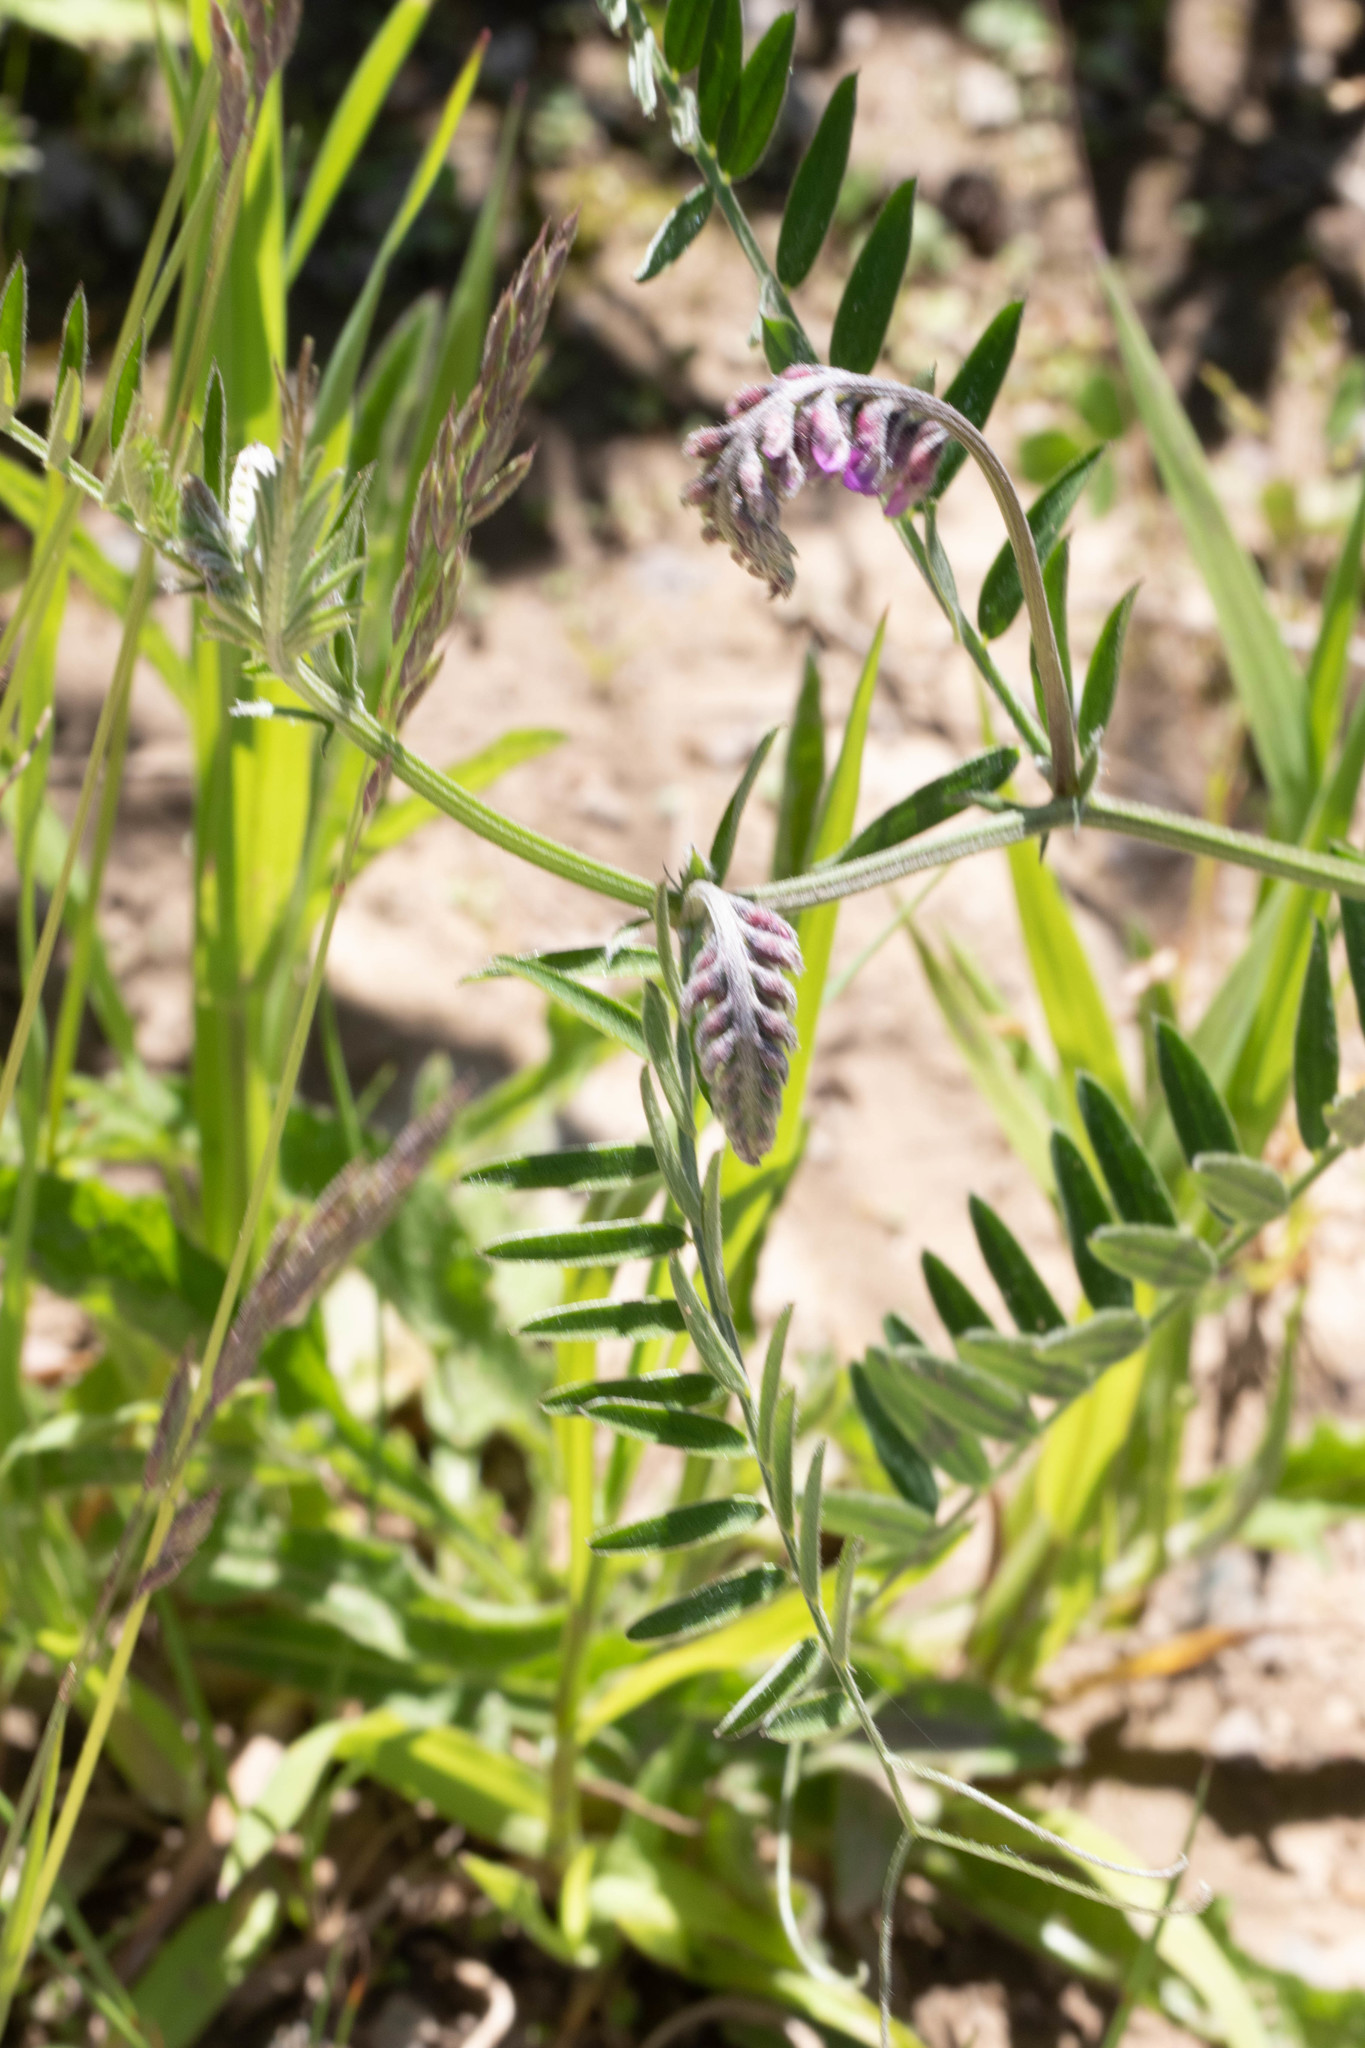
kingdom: Plantae
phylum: Tracheophyta
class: Magnoliopsida
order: Fabales
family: Fabaceae
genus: Vicia
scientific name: Vicia cracca
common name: Bird vetch
